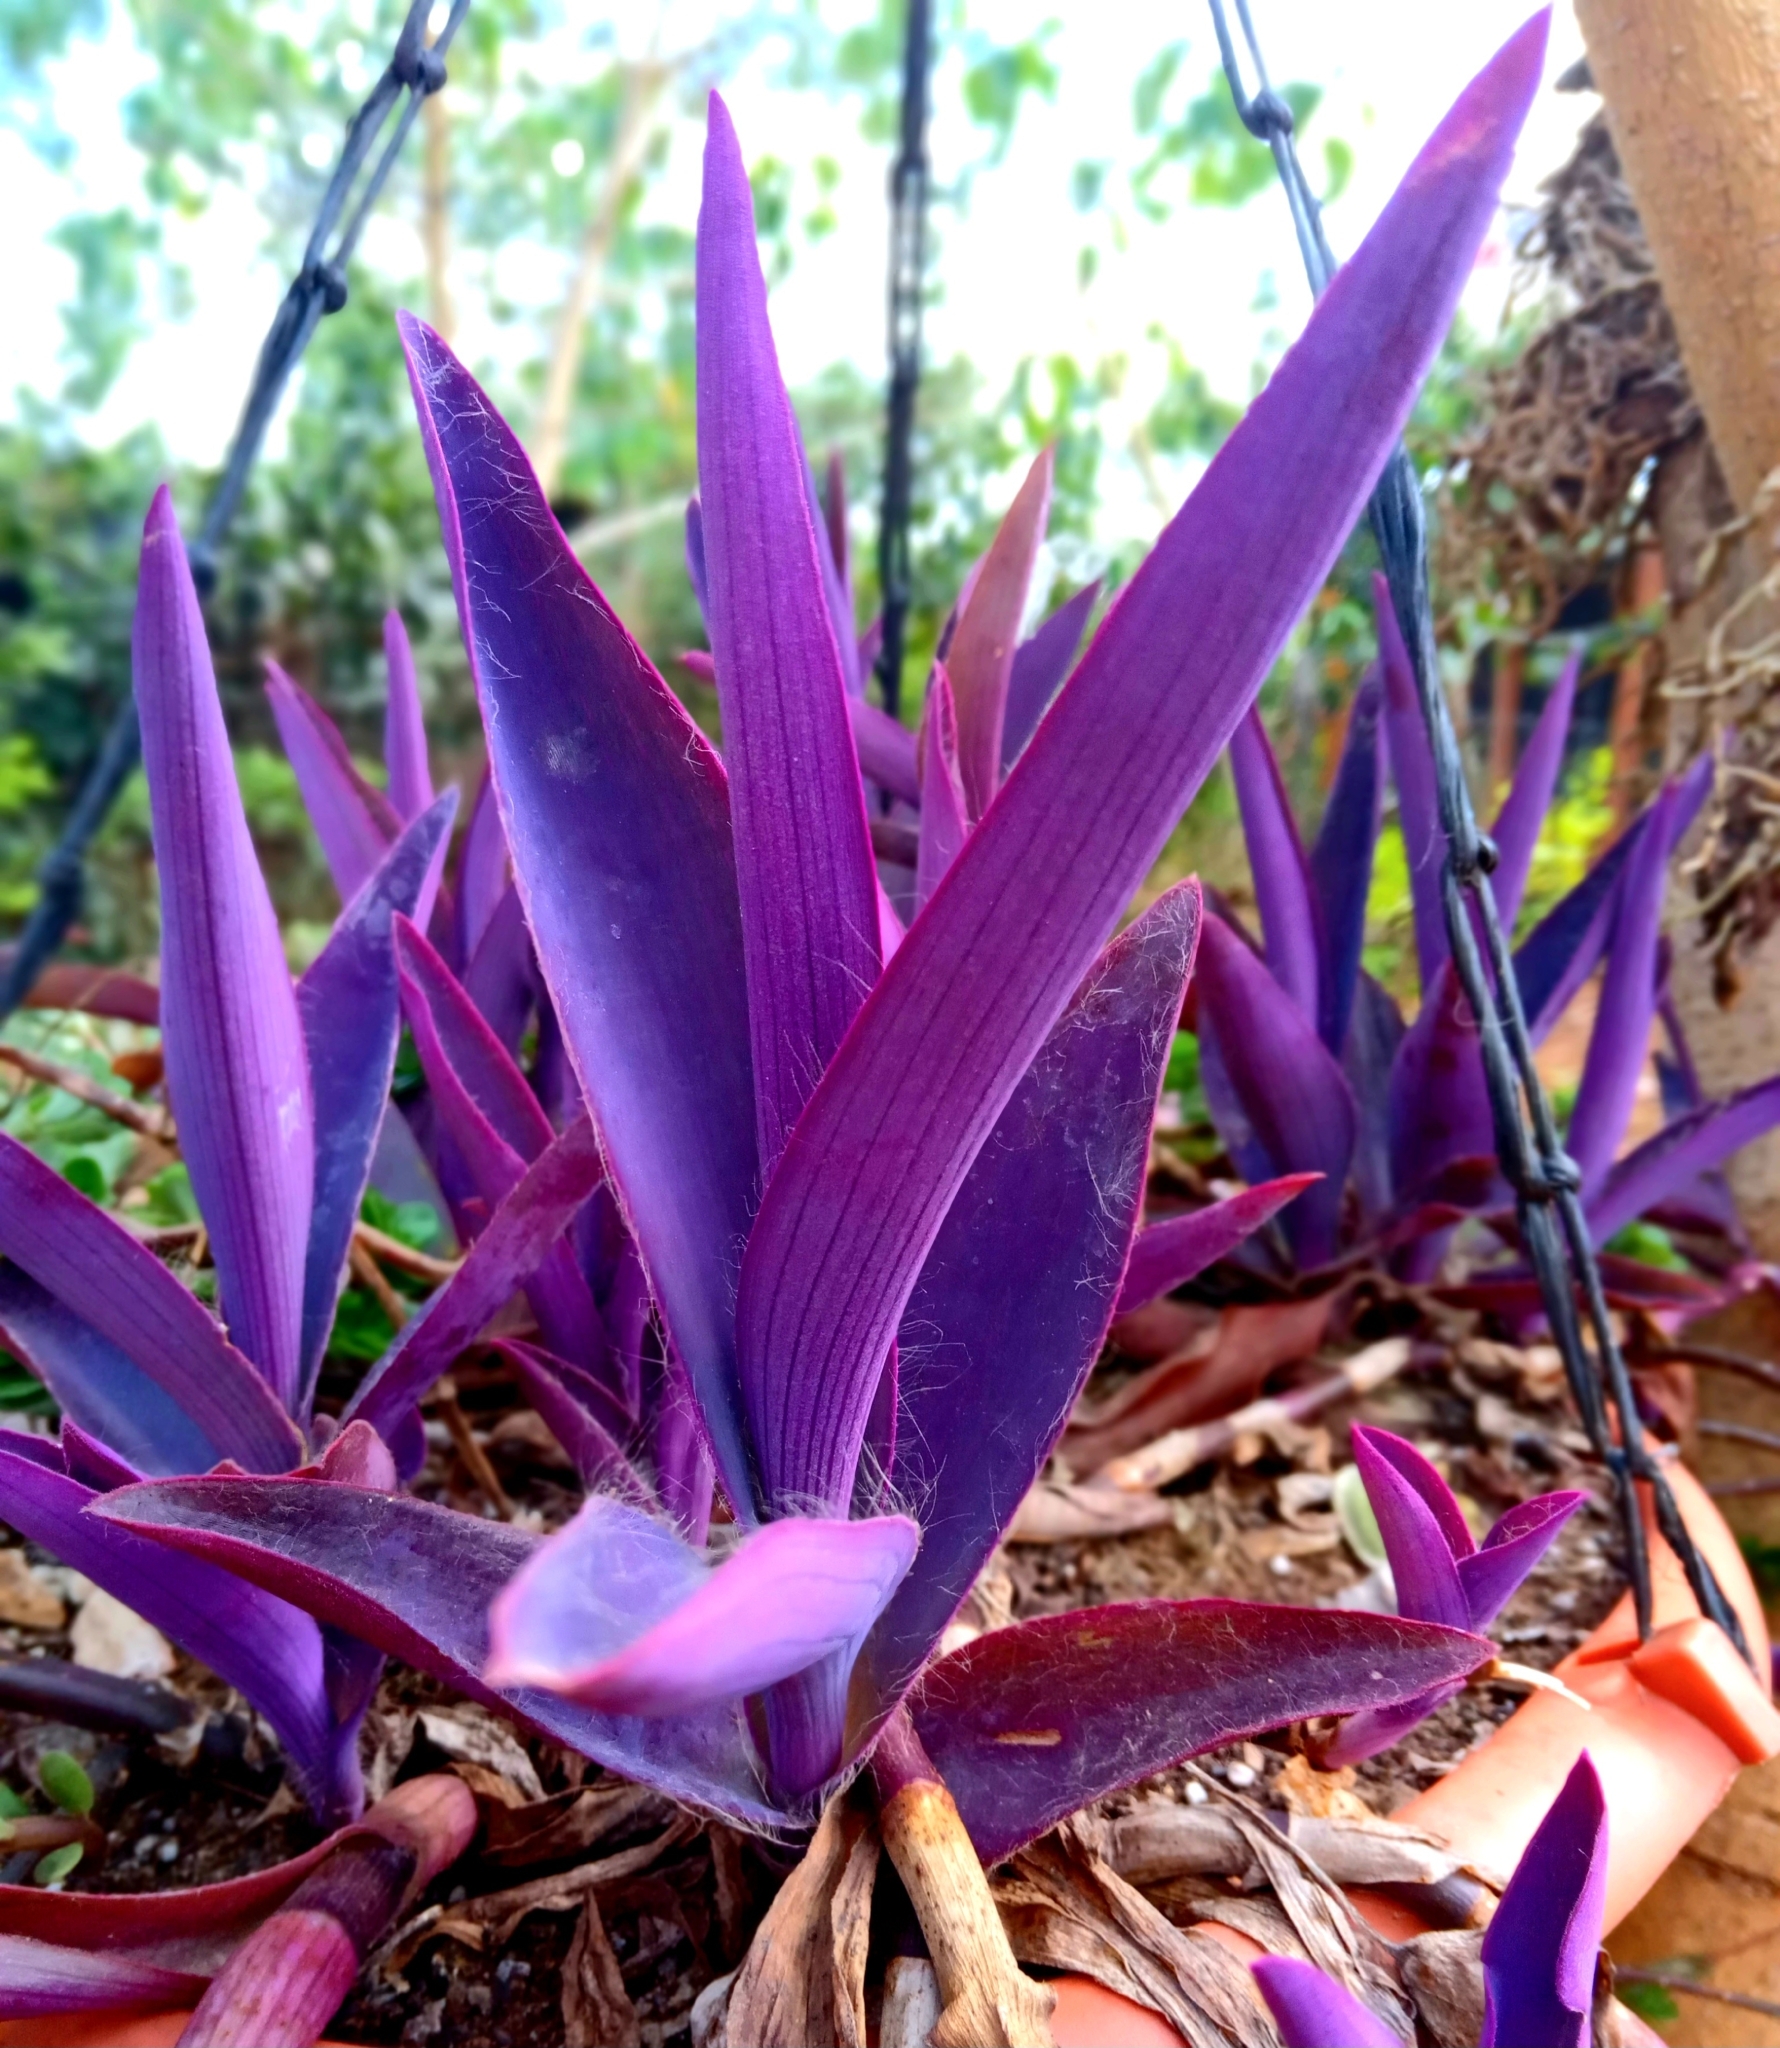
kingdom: Plantae
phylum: Tracheophyta
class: Liliopsida
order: Commelinales
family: Commelinaceae
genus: Tradescantia
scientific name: Tradescantia pallida
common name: Purpleheart
